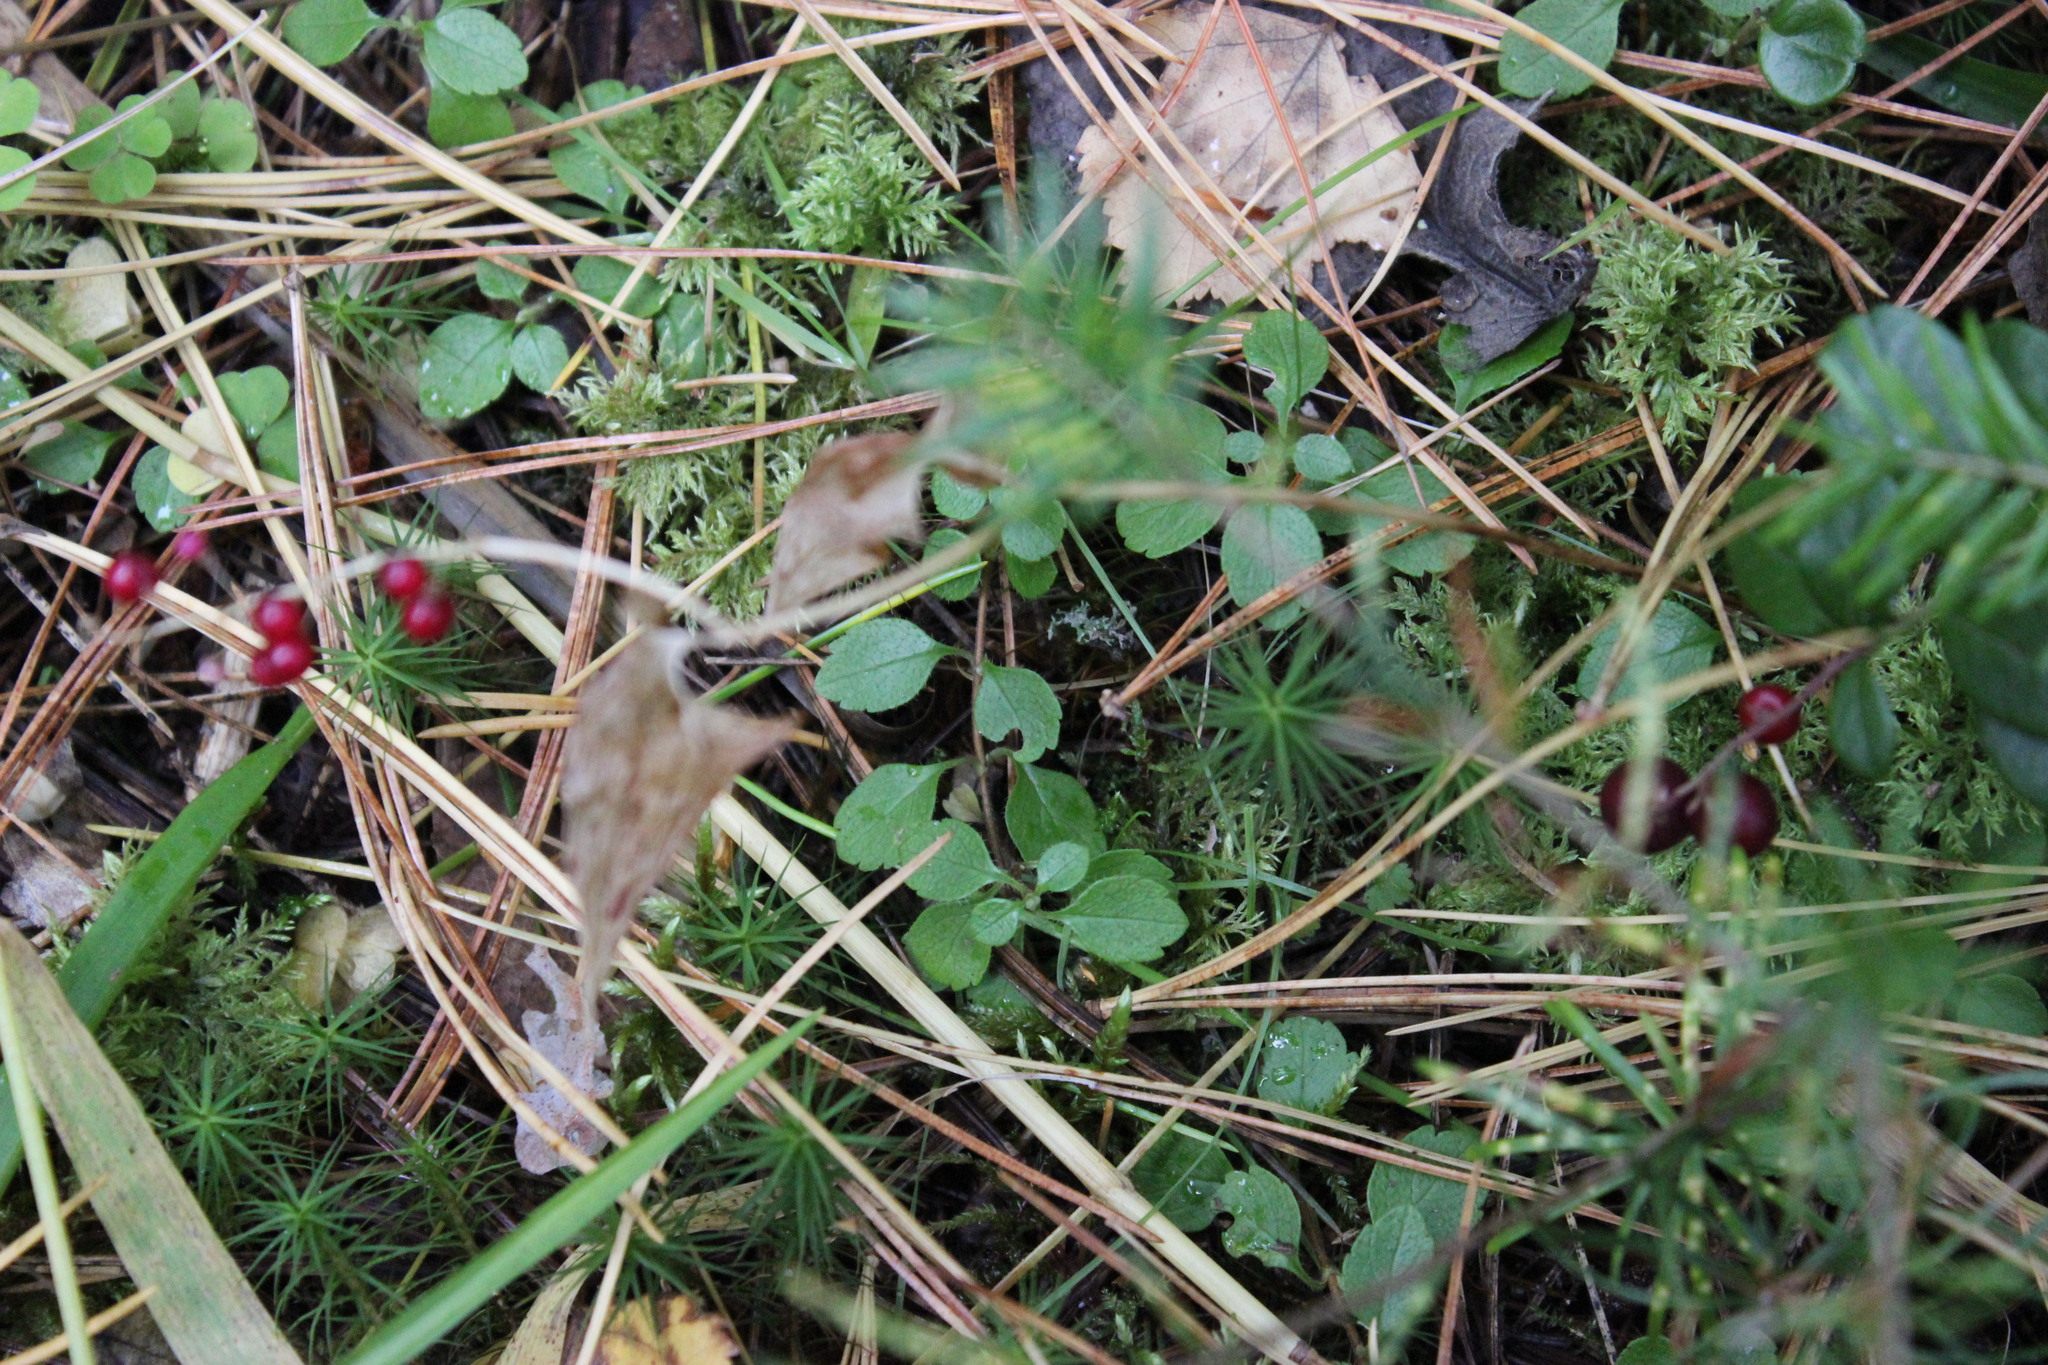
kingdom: Plantae
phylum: Tracheophyta
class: Magnoliopsida
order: Dipsacales
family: Caprifoliaceae
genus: Linnaea
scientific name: Linnaea borealis
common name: Twinflower
